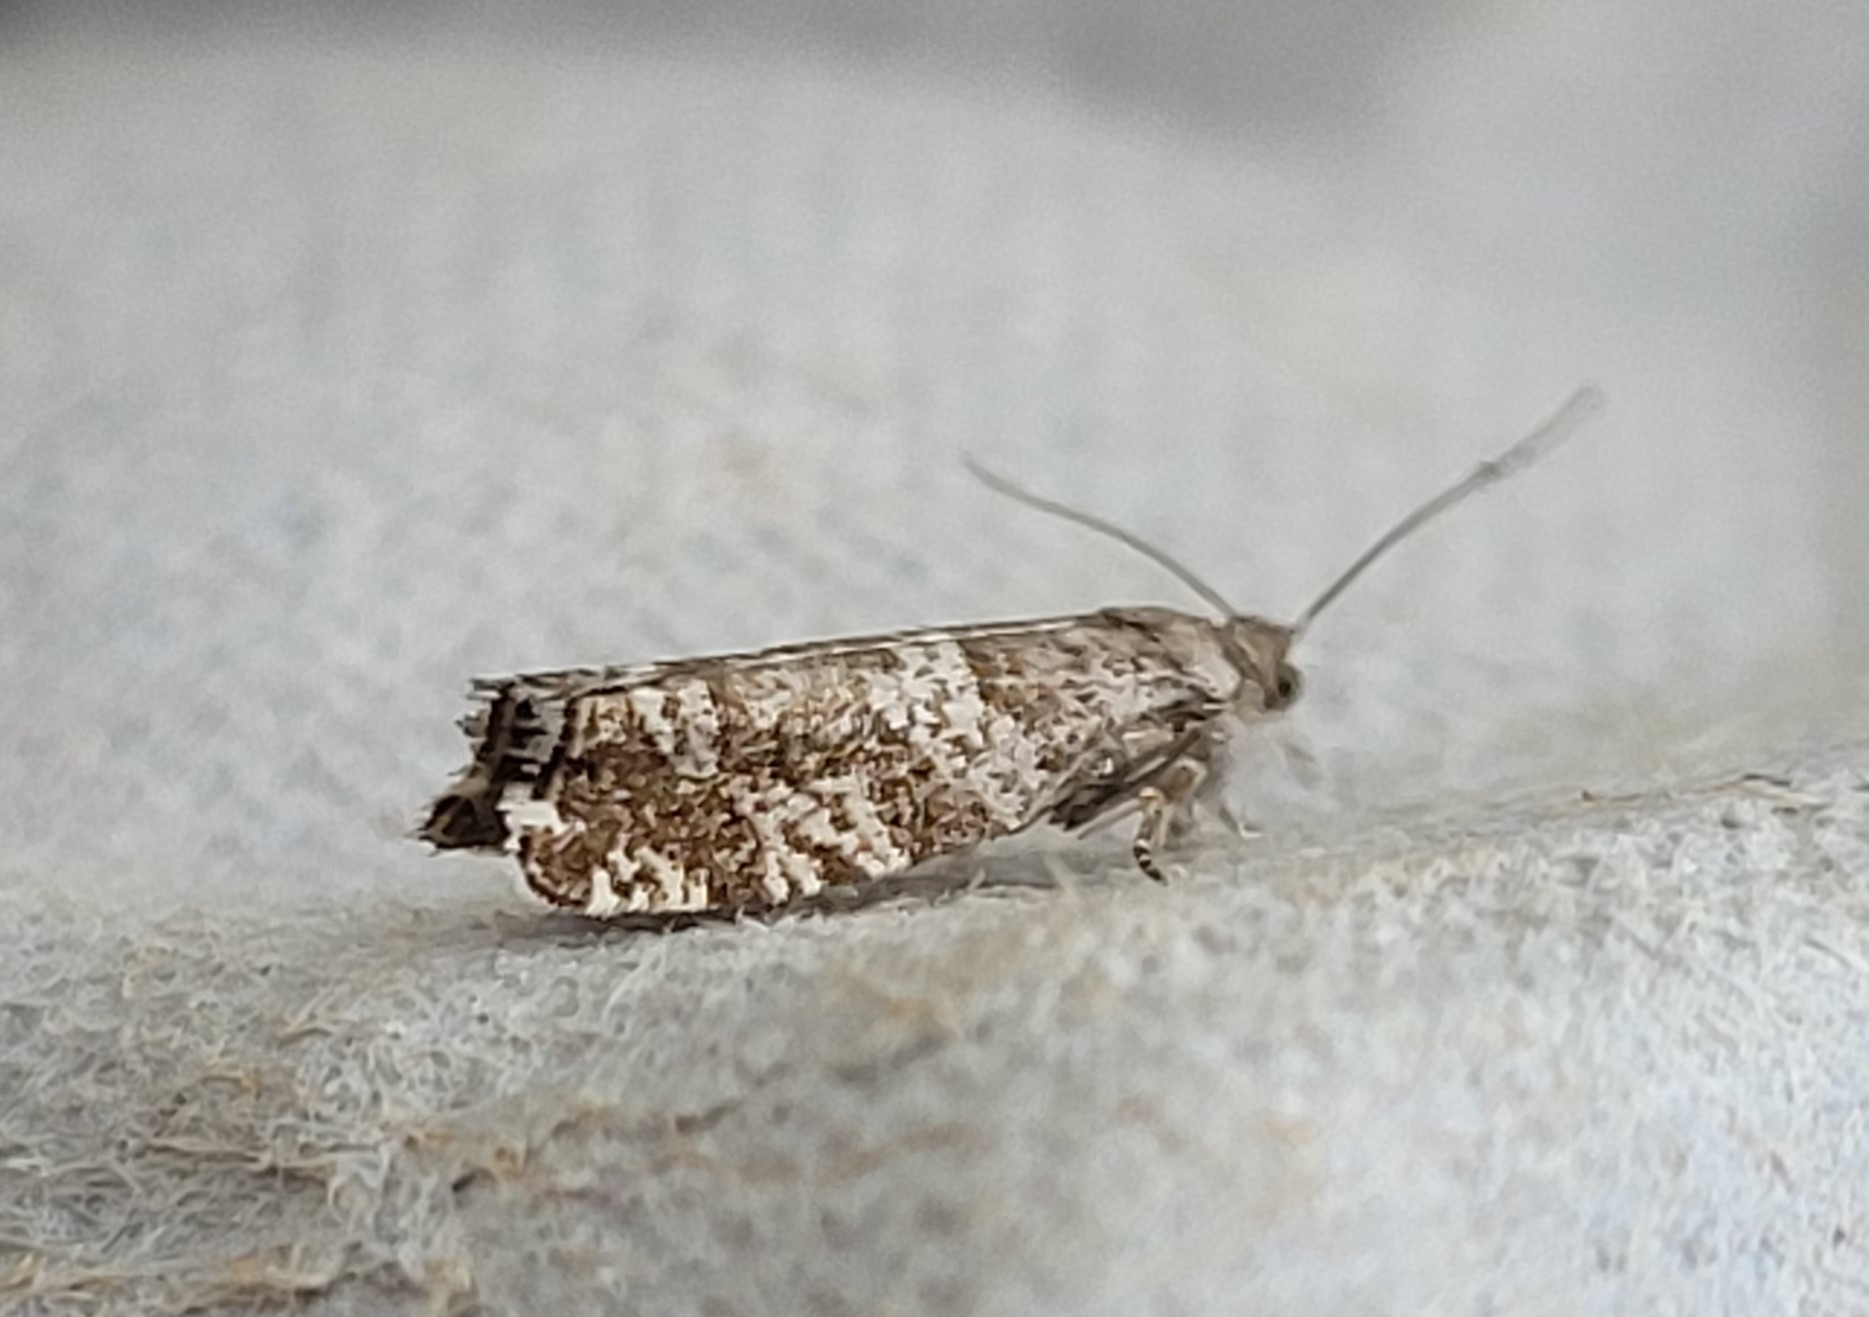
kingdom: Animalia
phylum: Arthropoda
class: Insecta
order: Lepidoptera
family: Tortricidae
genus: Epinotia
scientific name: Epinotia tedella
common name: Common spruce bell
